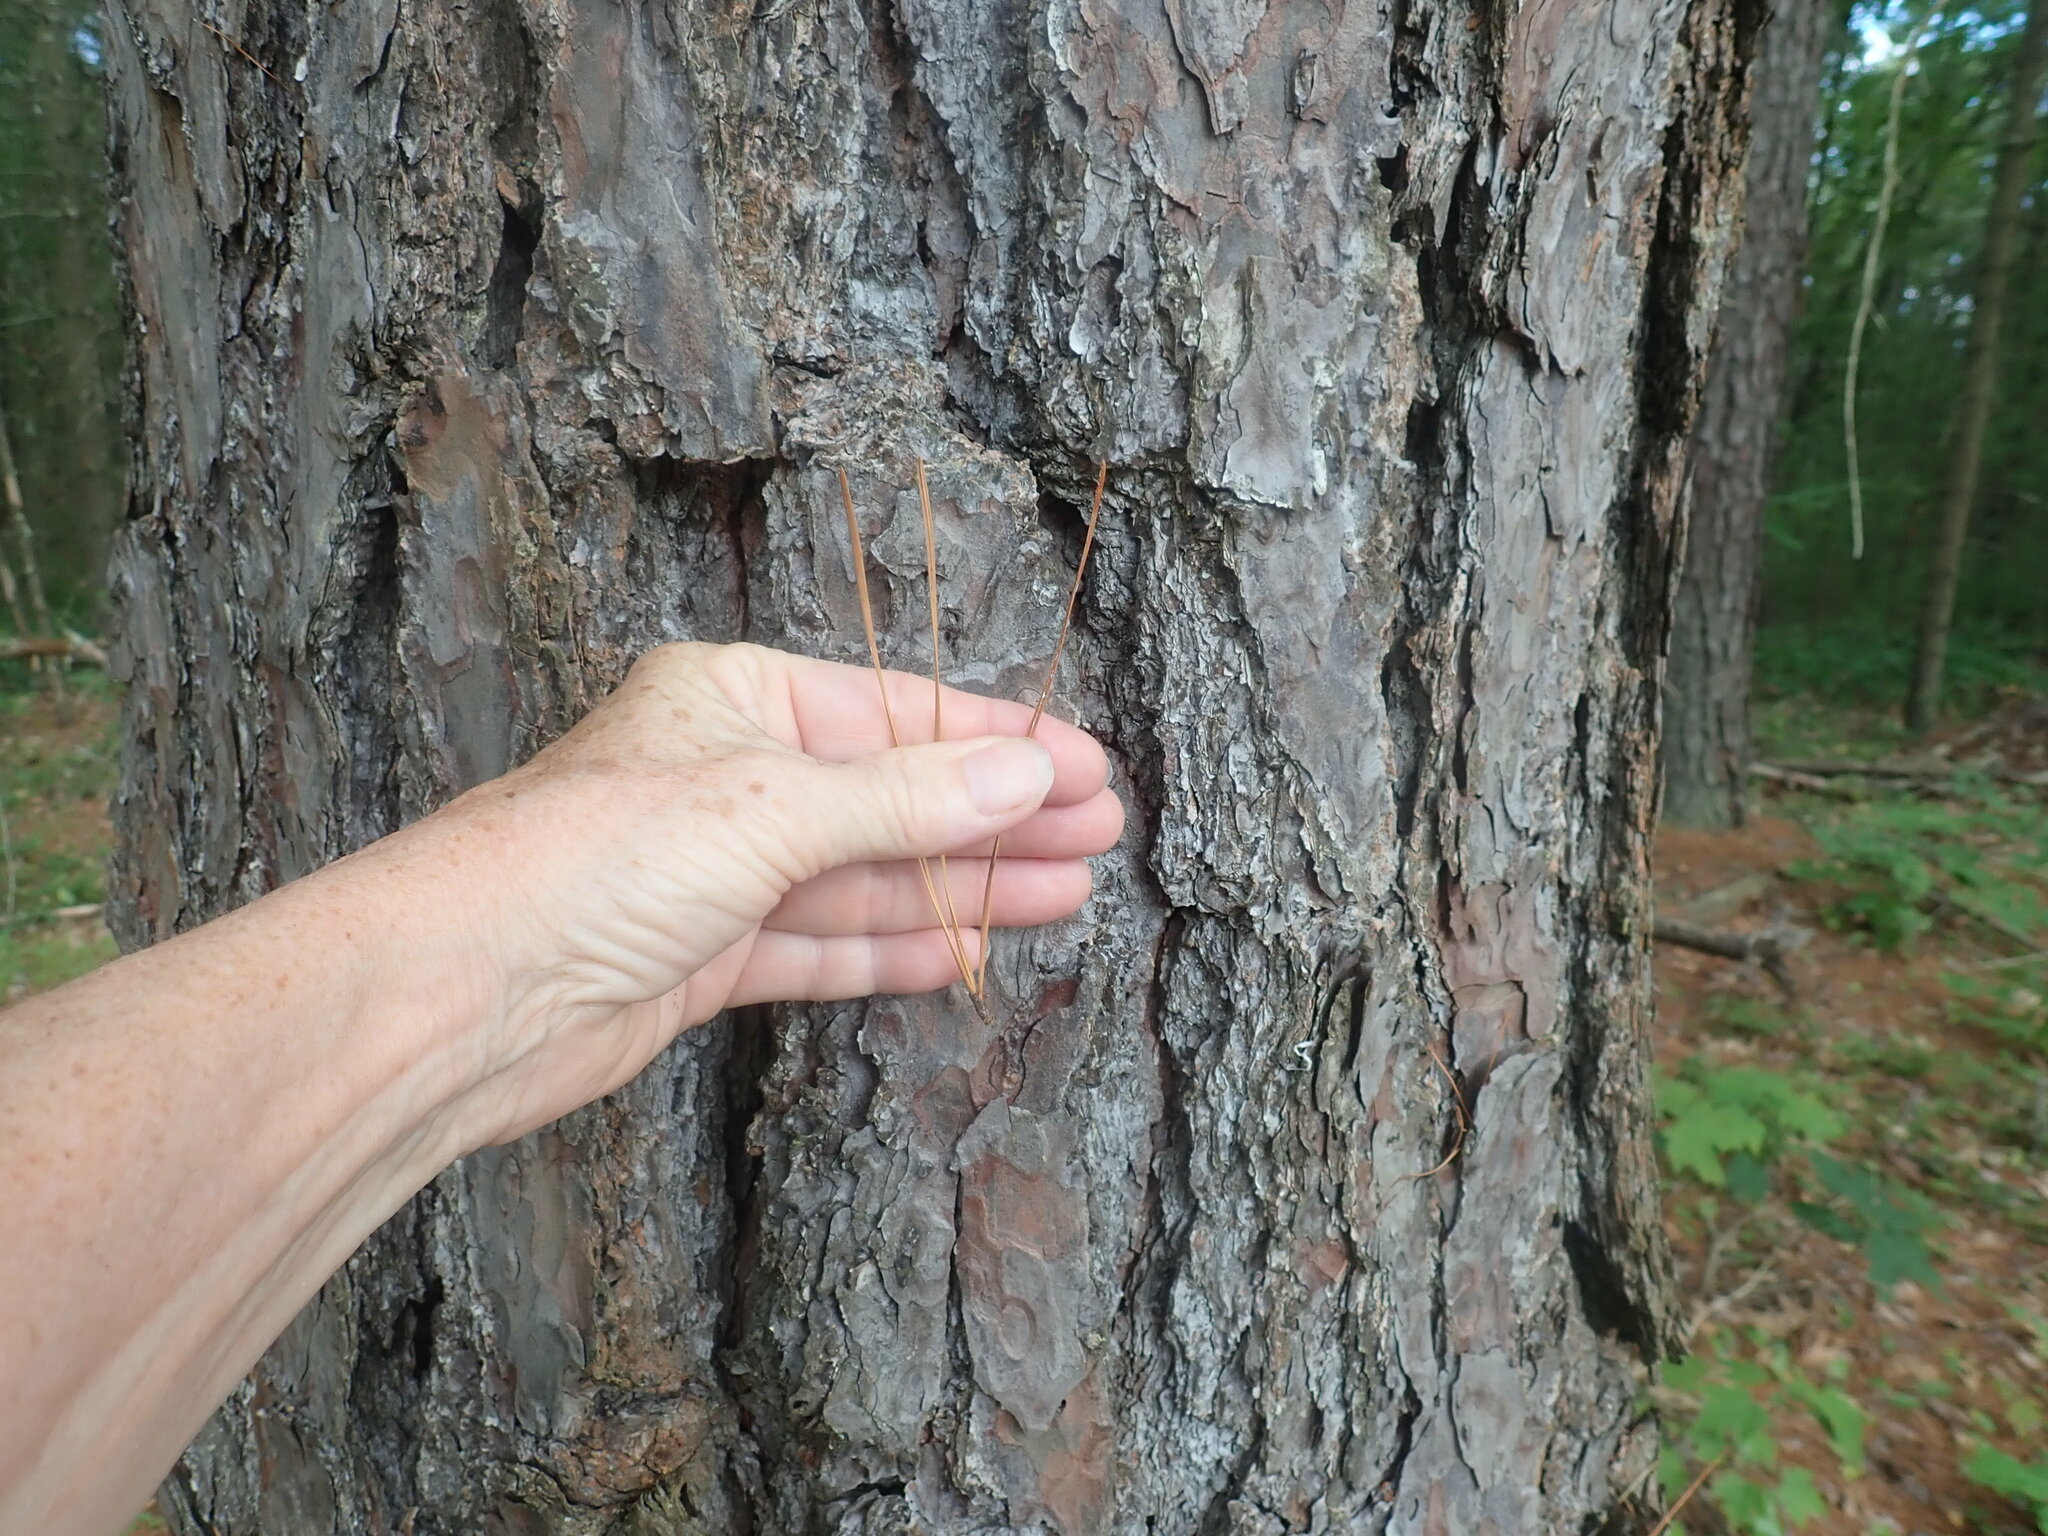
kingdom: Plantae
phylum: Tracheophyta
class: Pinopsida
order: Pinales
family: Pinaceae
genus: Pinus
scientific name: Pinus rigida
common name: Pitch pine
